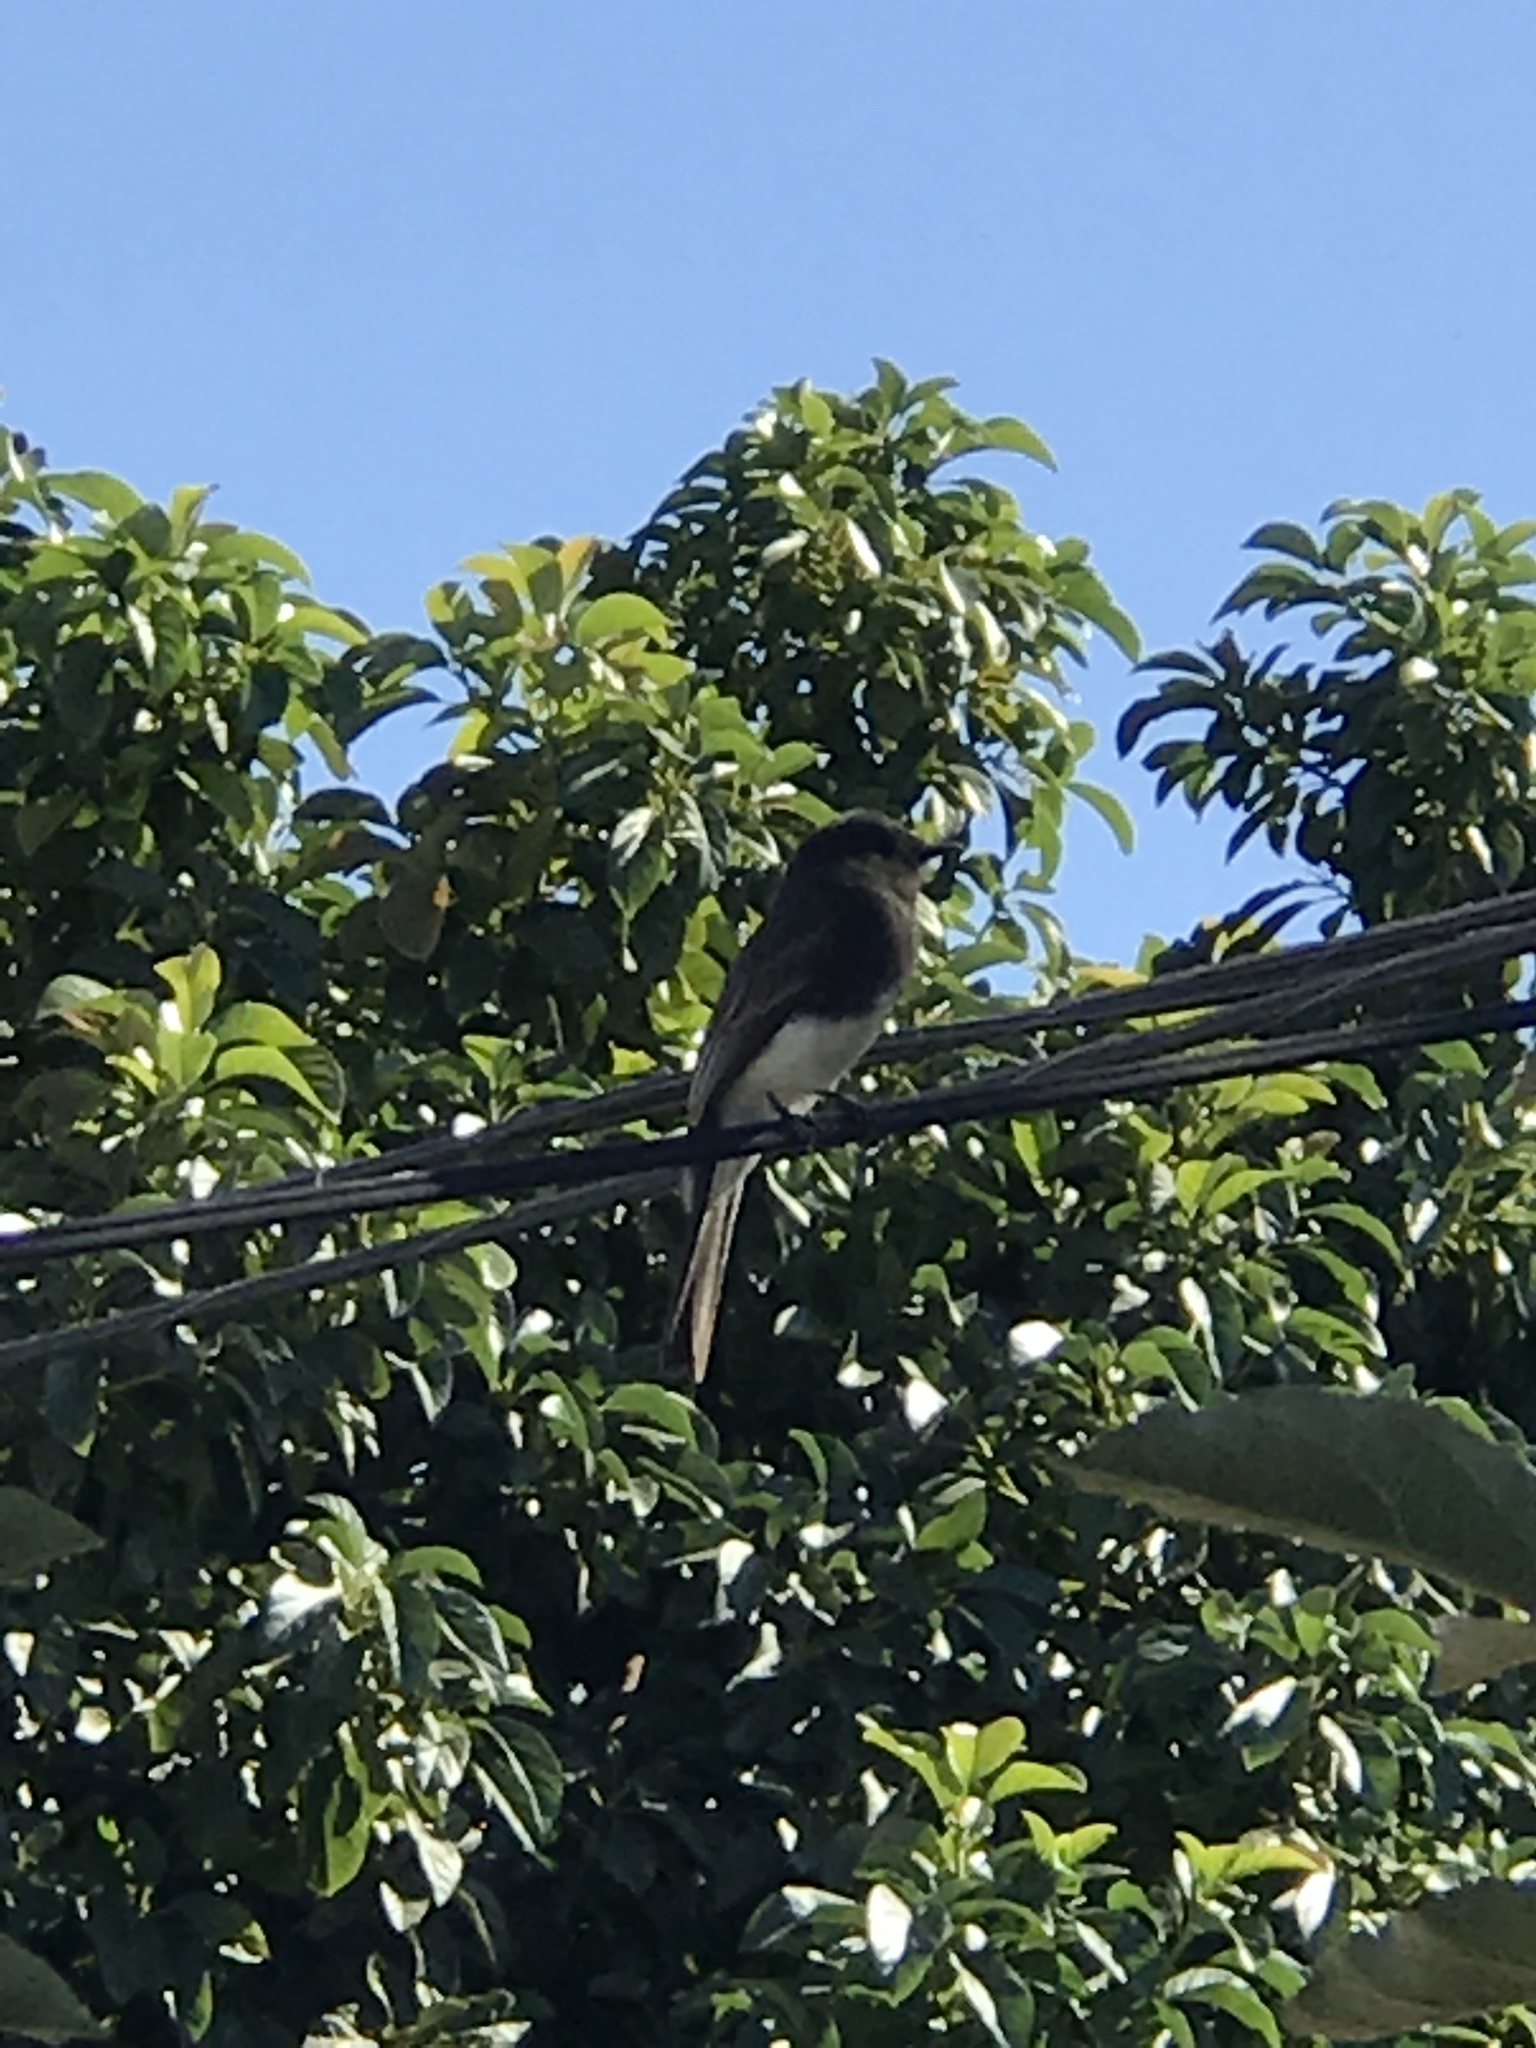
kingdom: Animalia
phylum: Chordata
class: Aves
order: Passeriformes
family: Tyrannidae
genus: Sayornis
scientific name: Sayornis nigricans
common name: Black phoebe
